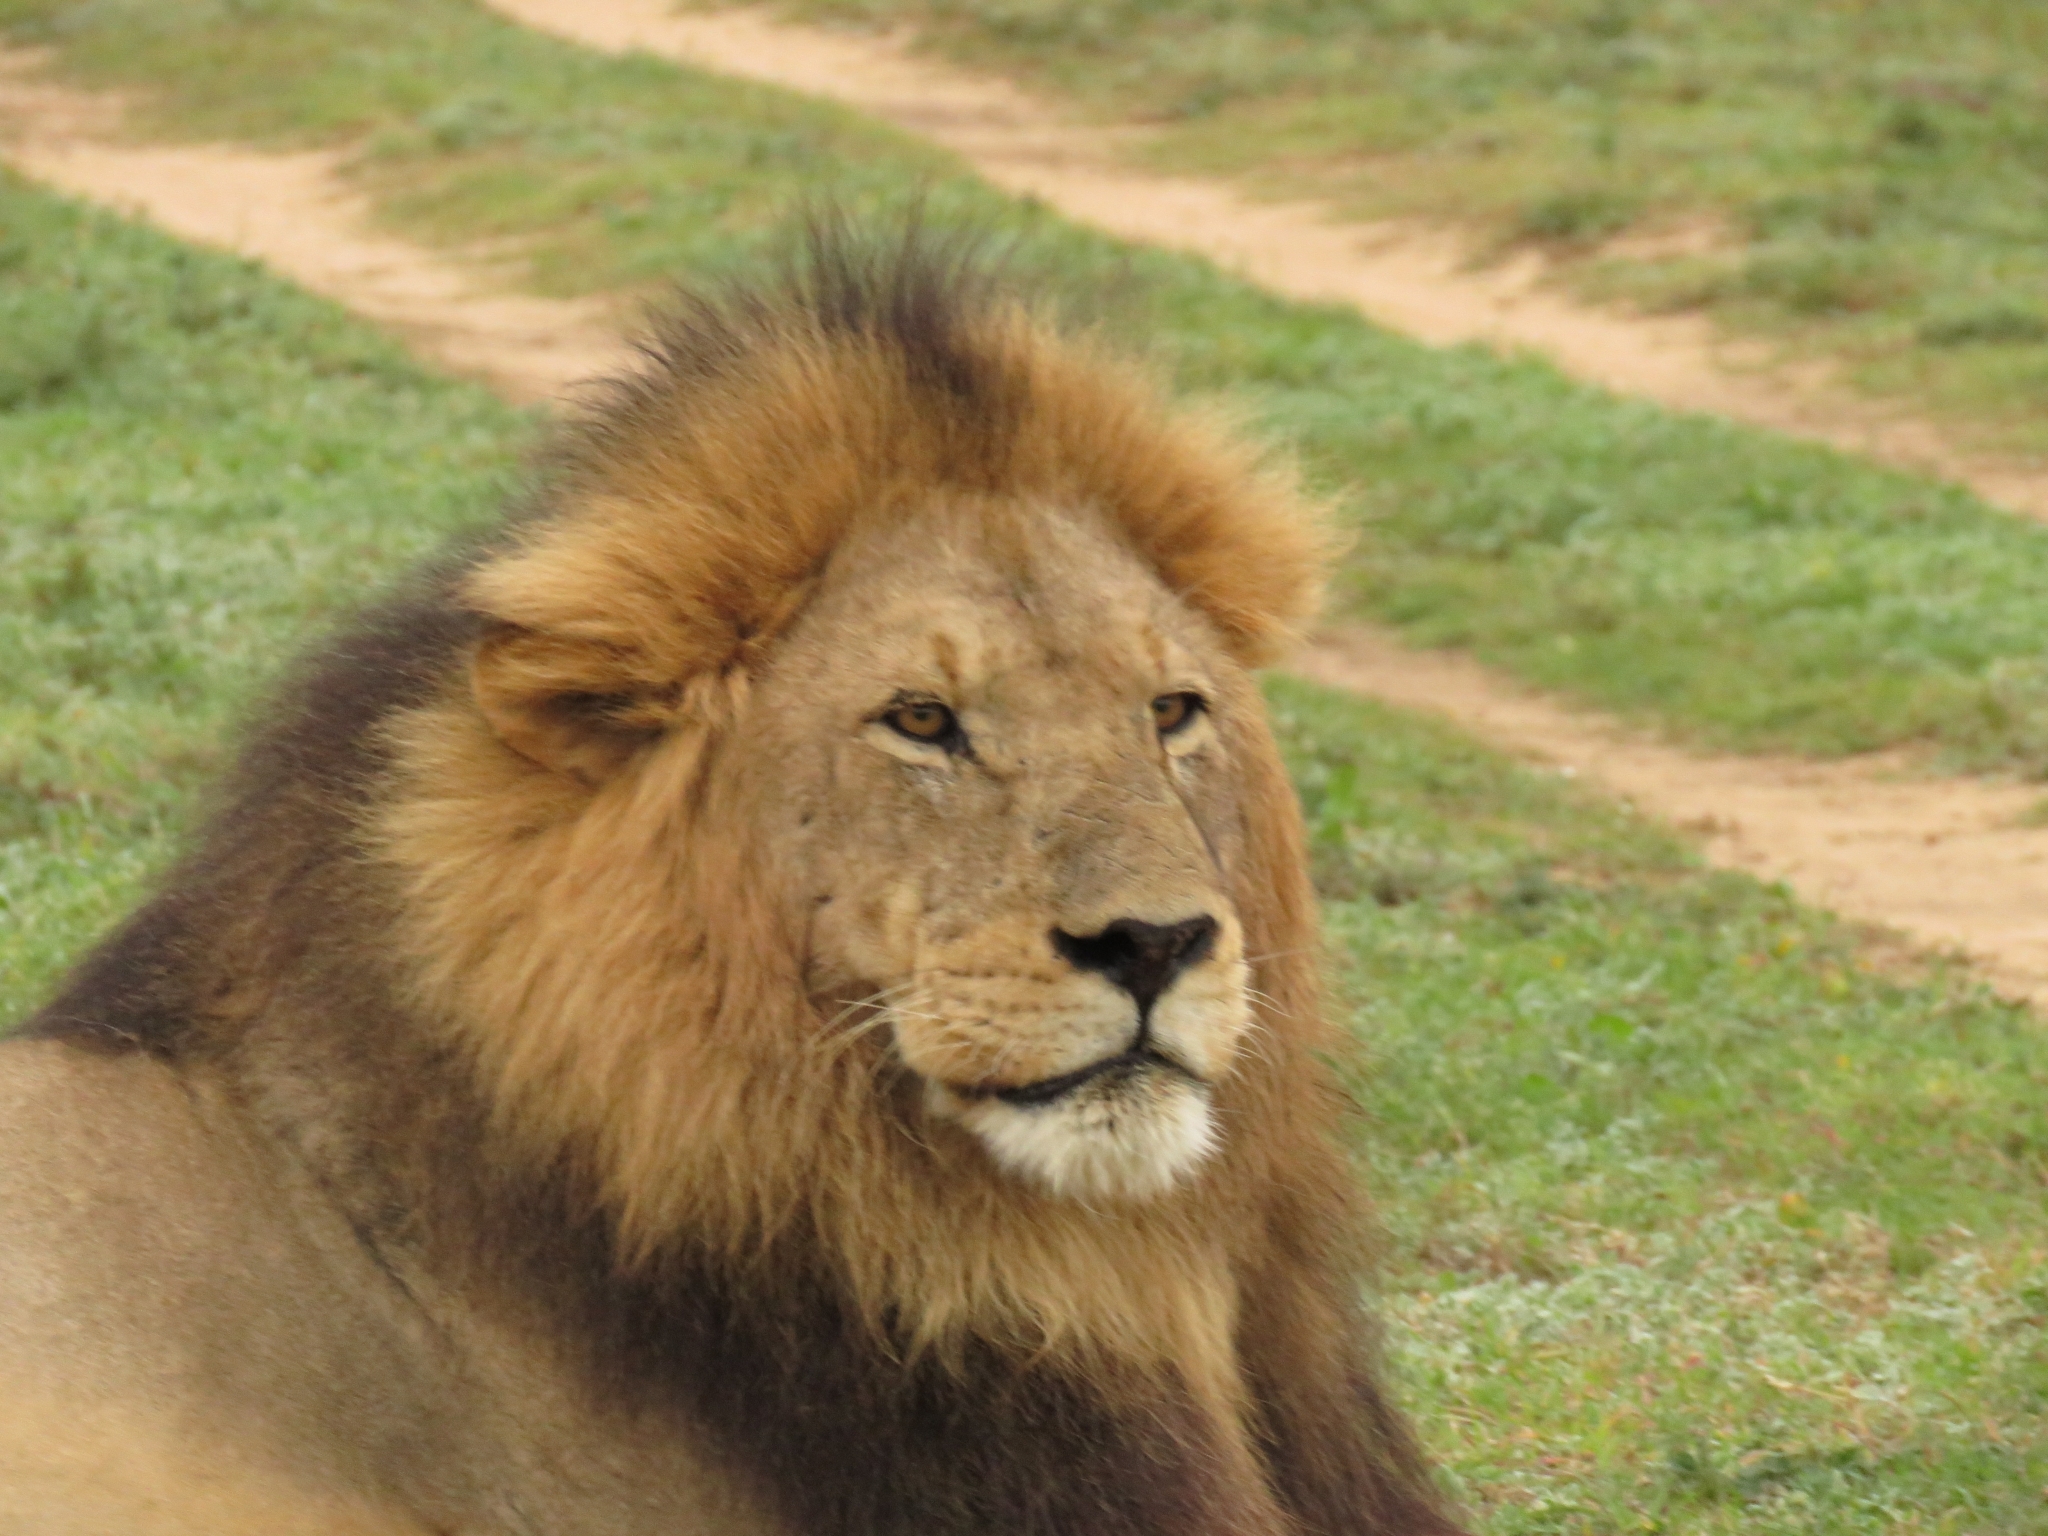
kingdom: Animalia
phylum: Chordata
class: Mammalia
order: Carnivora
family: Felidae
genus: Panthera
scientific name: Panthera leo
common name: Lion
